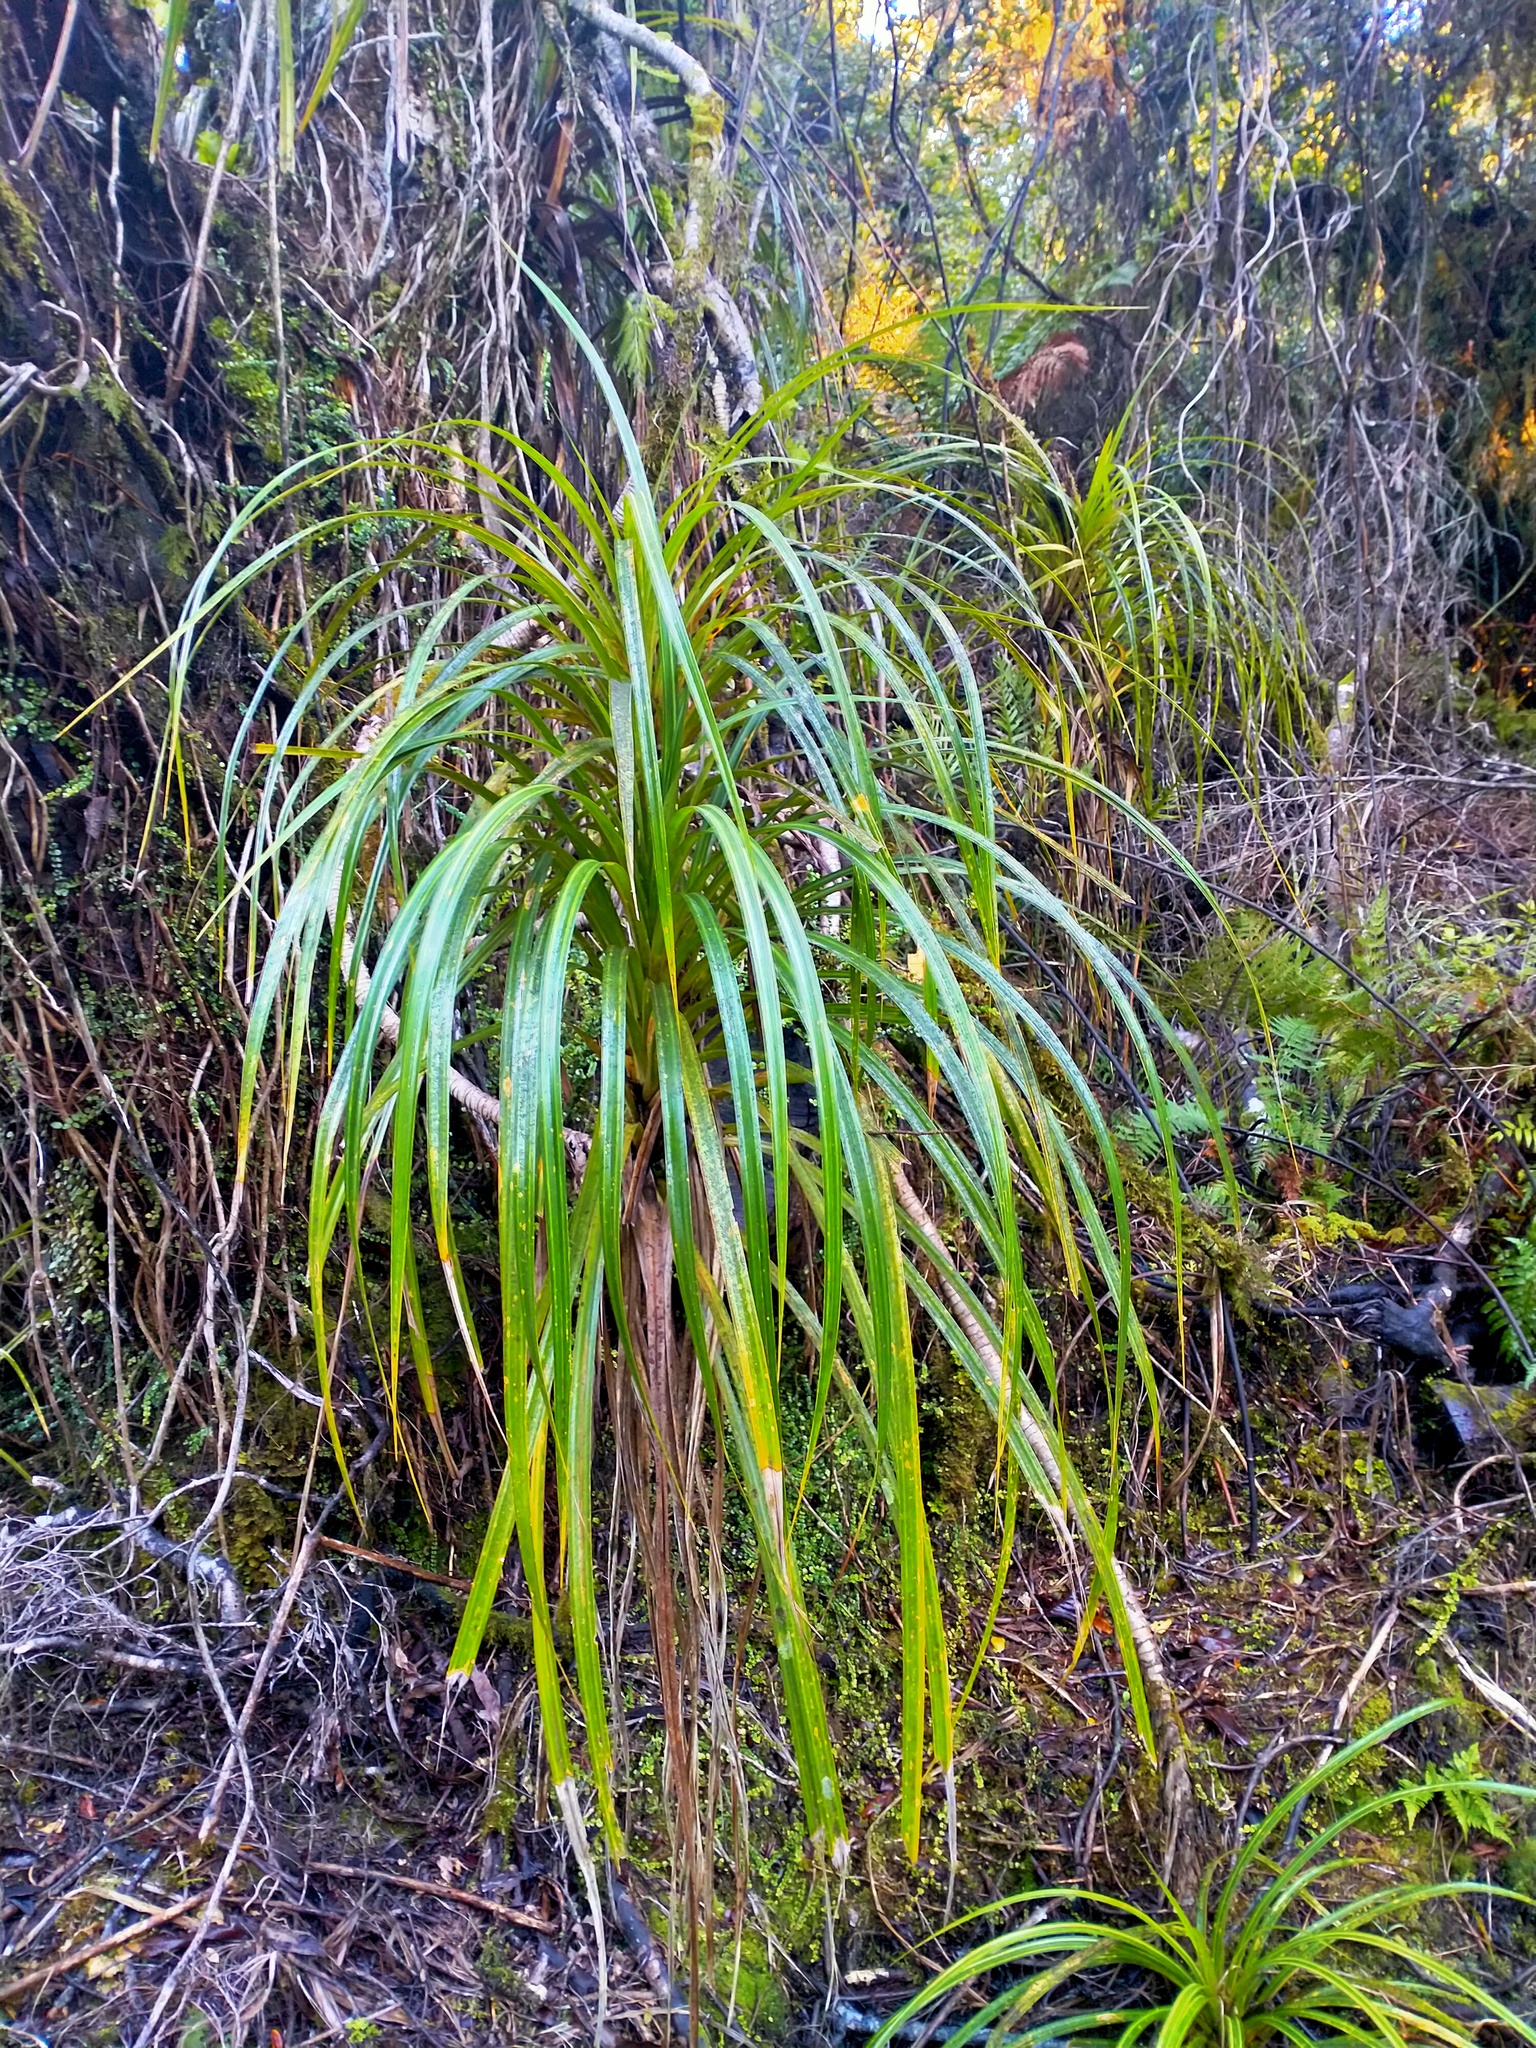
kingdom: Plantae
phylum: Tracheophyta
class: Liliopsida
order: Pandanales
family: Pandanaceae
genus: Freycinetia
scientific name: Freycinetia banksii
